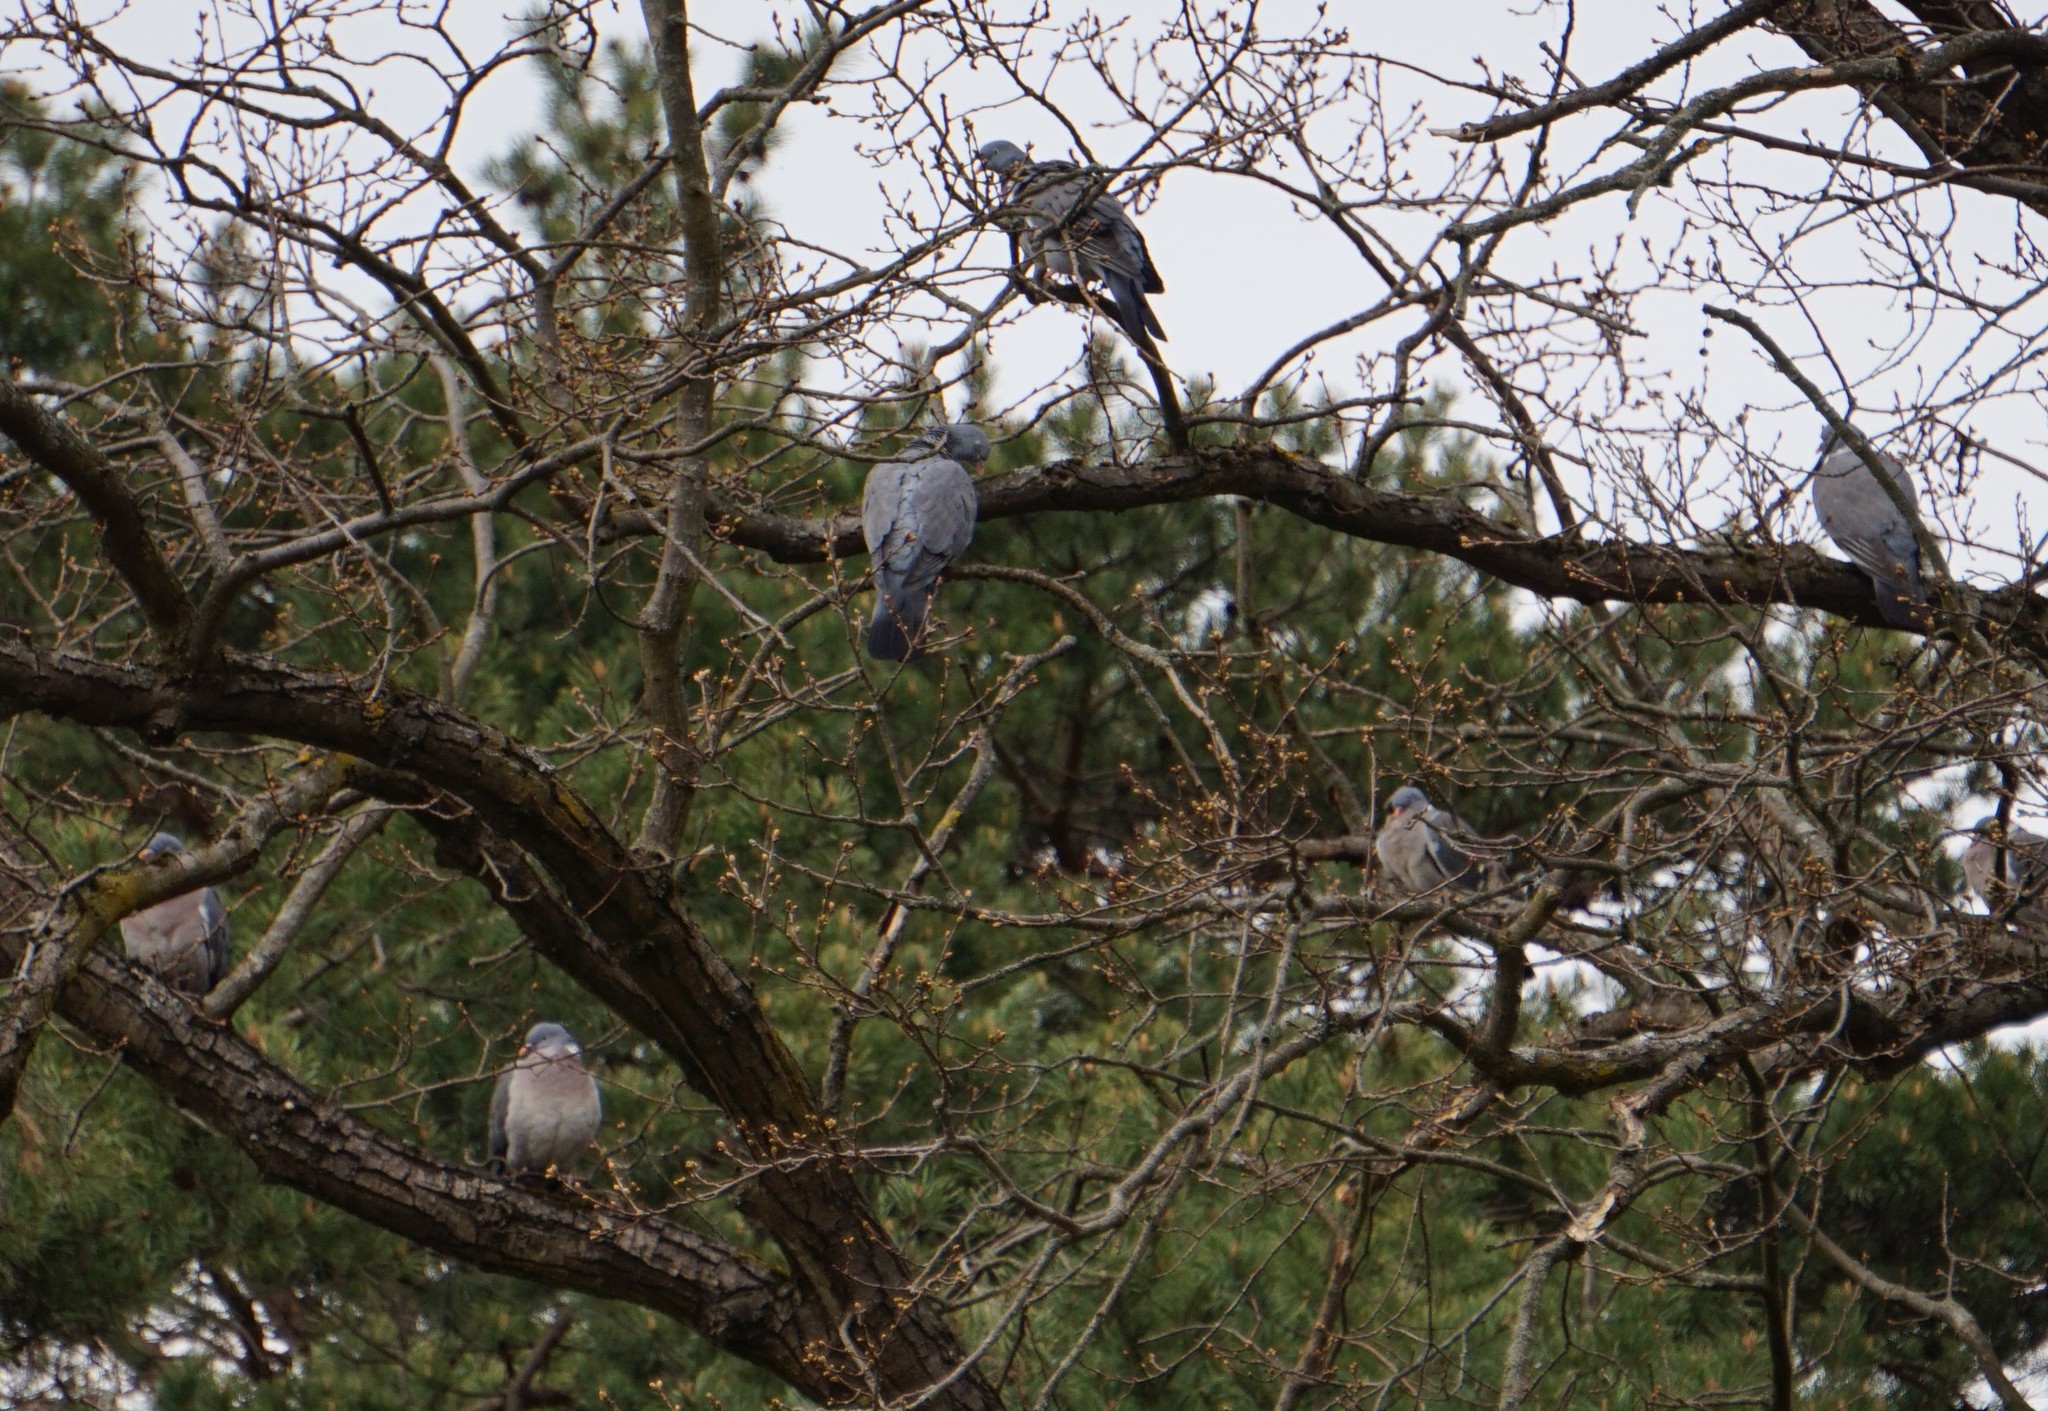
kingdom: Animalia
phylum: Chordata
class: Aves
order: Columbiformes
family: Columbidae
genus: Columba
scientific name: Columba palumbus
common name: Common wood pigeon
